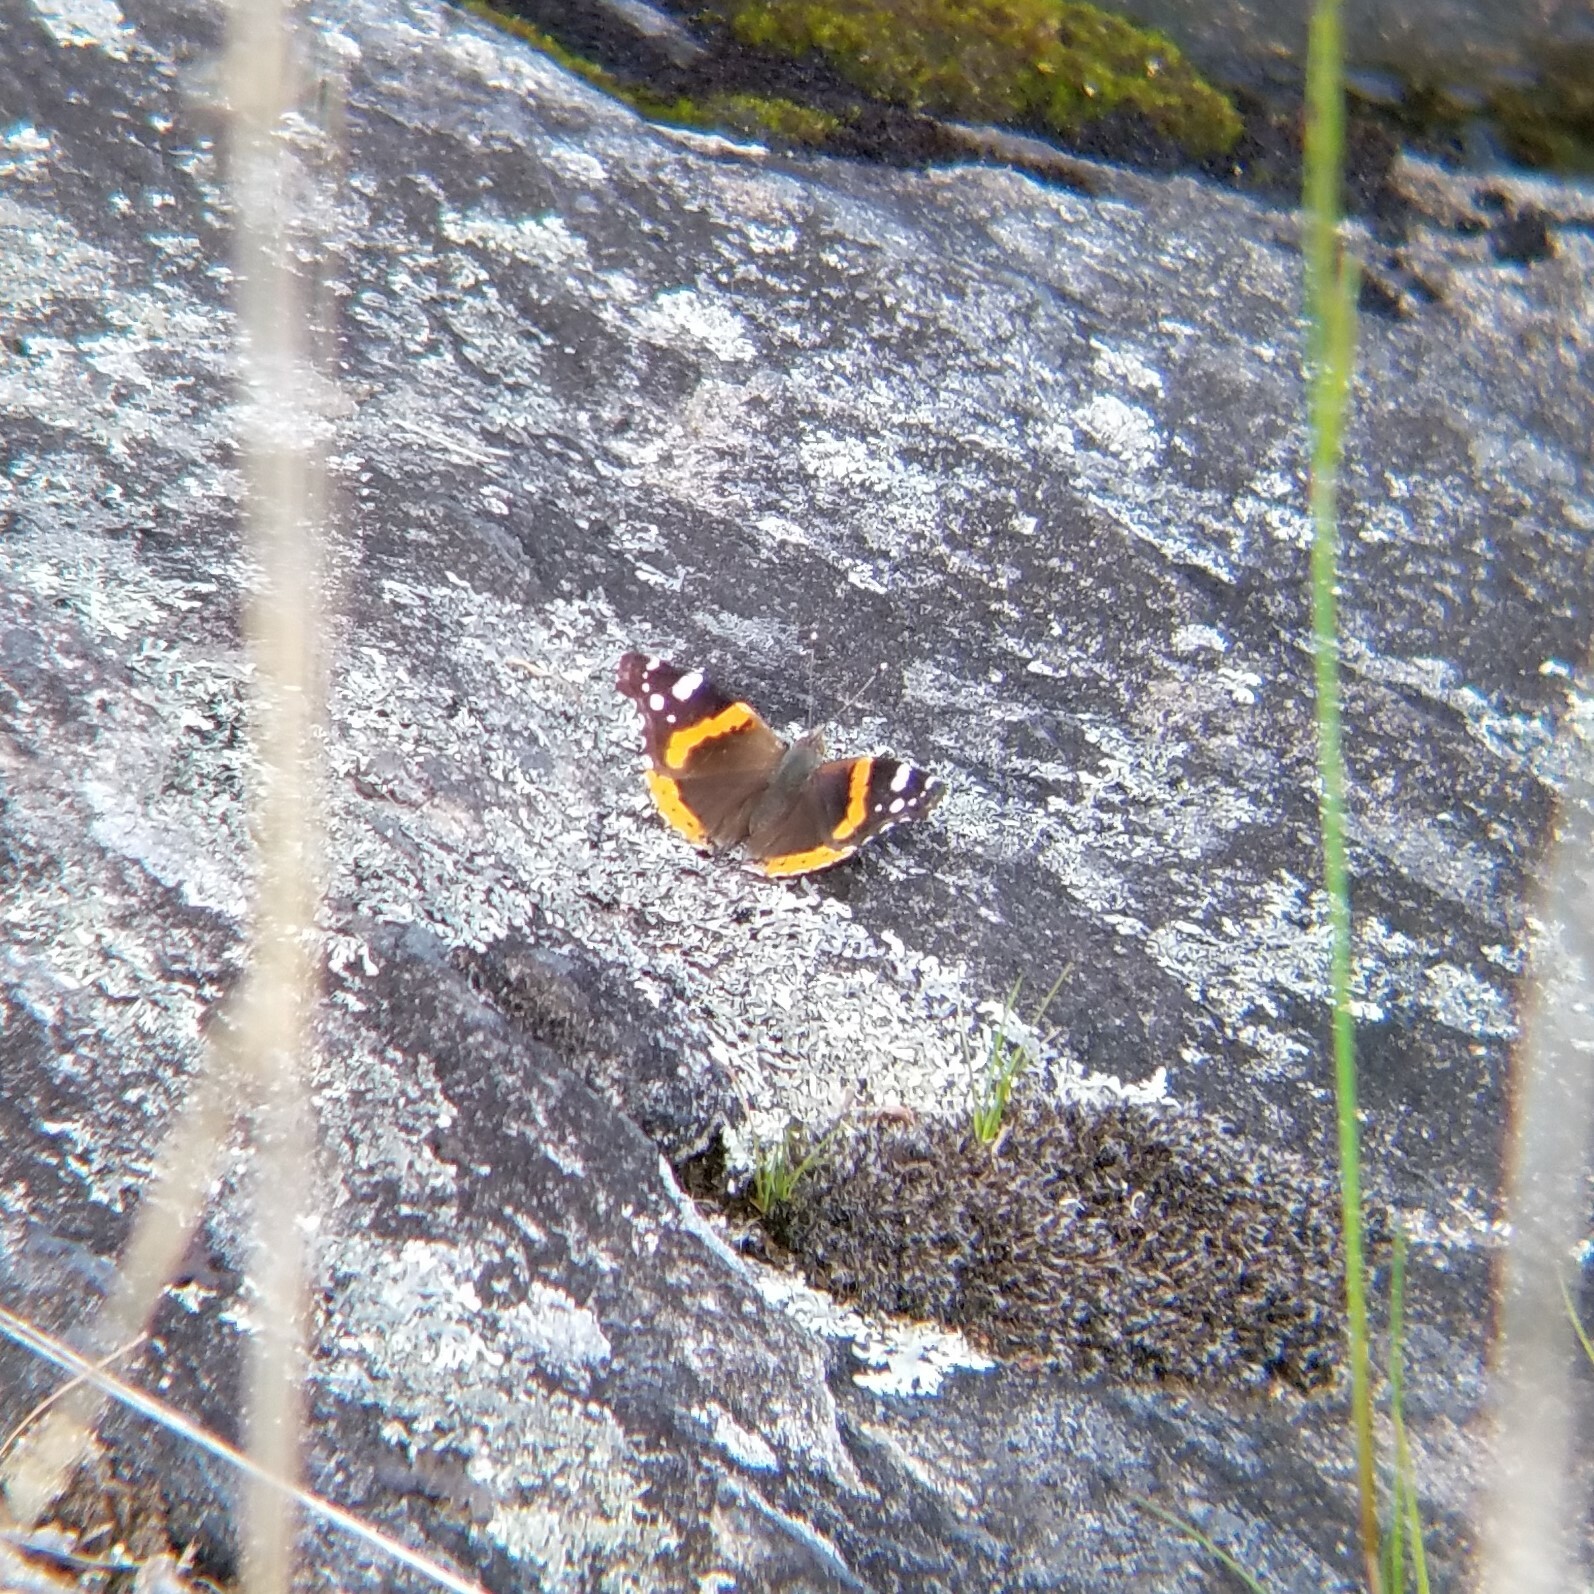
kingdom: Animalia
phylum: Arthropoda
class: Insecta
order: Lepidoptera
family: Nymphalidae
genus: Vanessa
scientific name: Vanessa atalanta
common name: Red admiral
